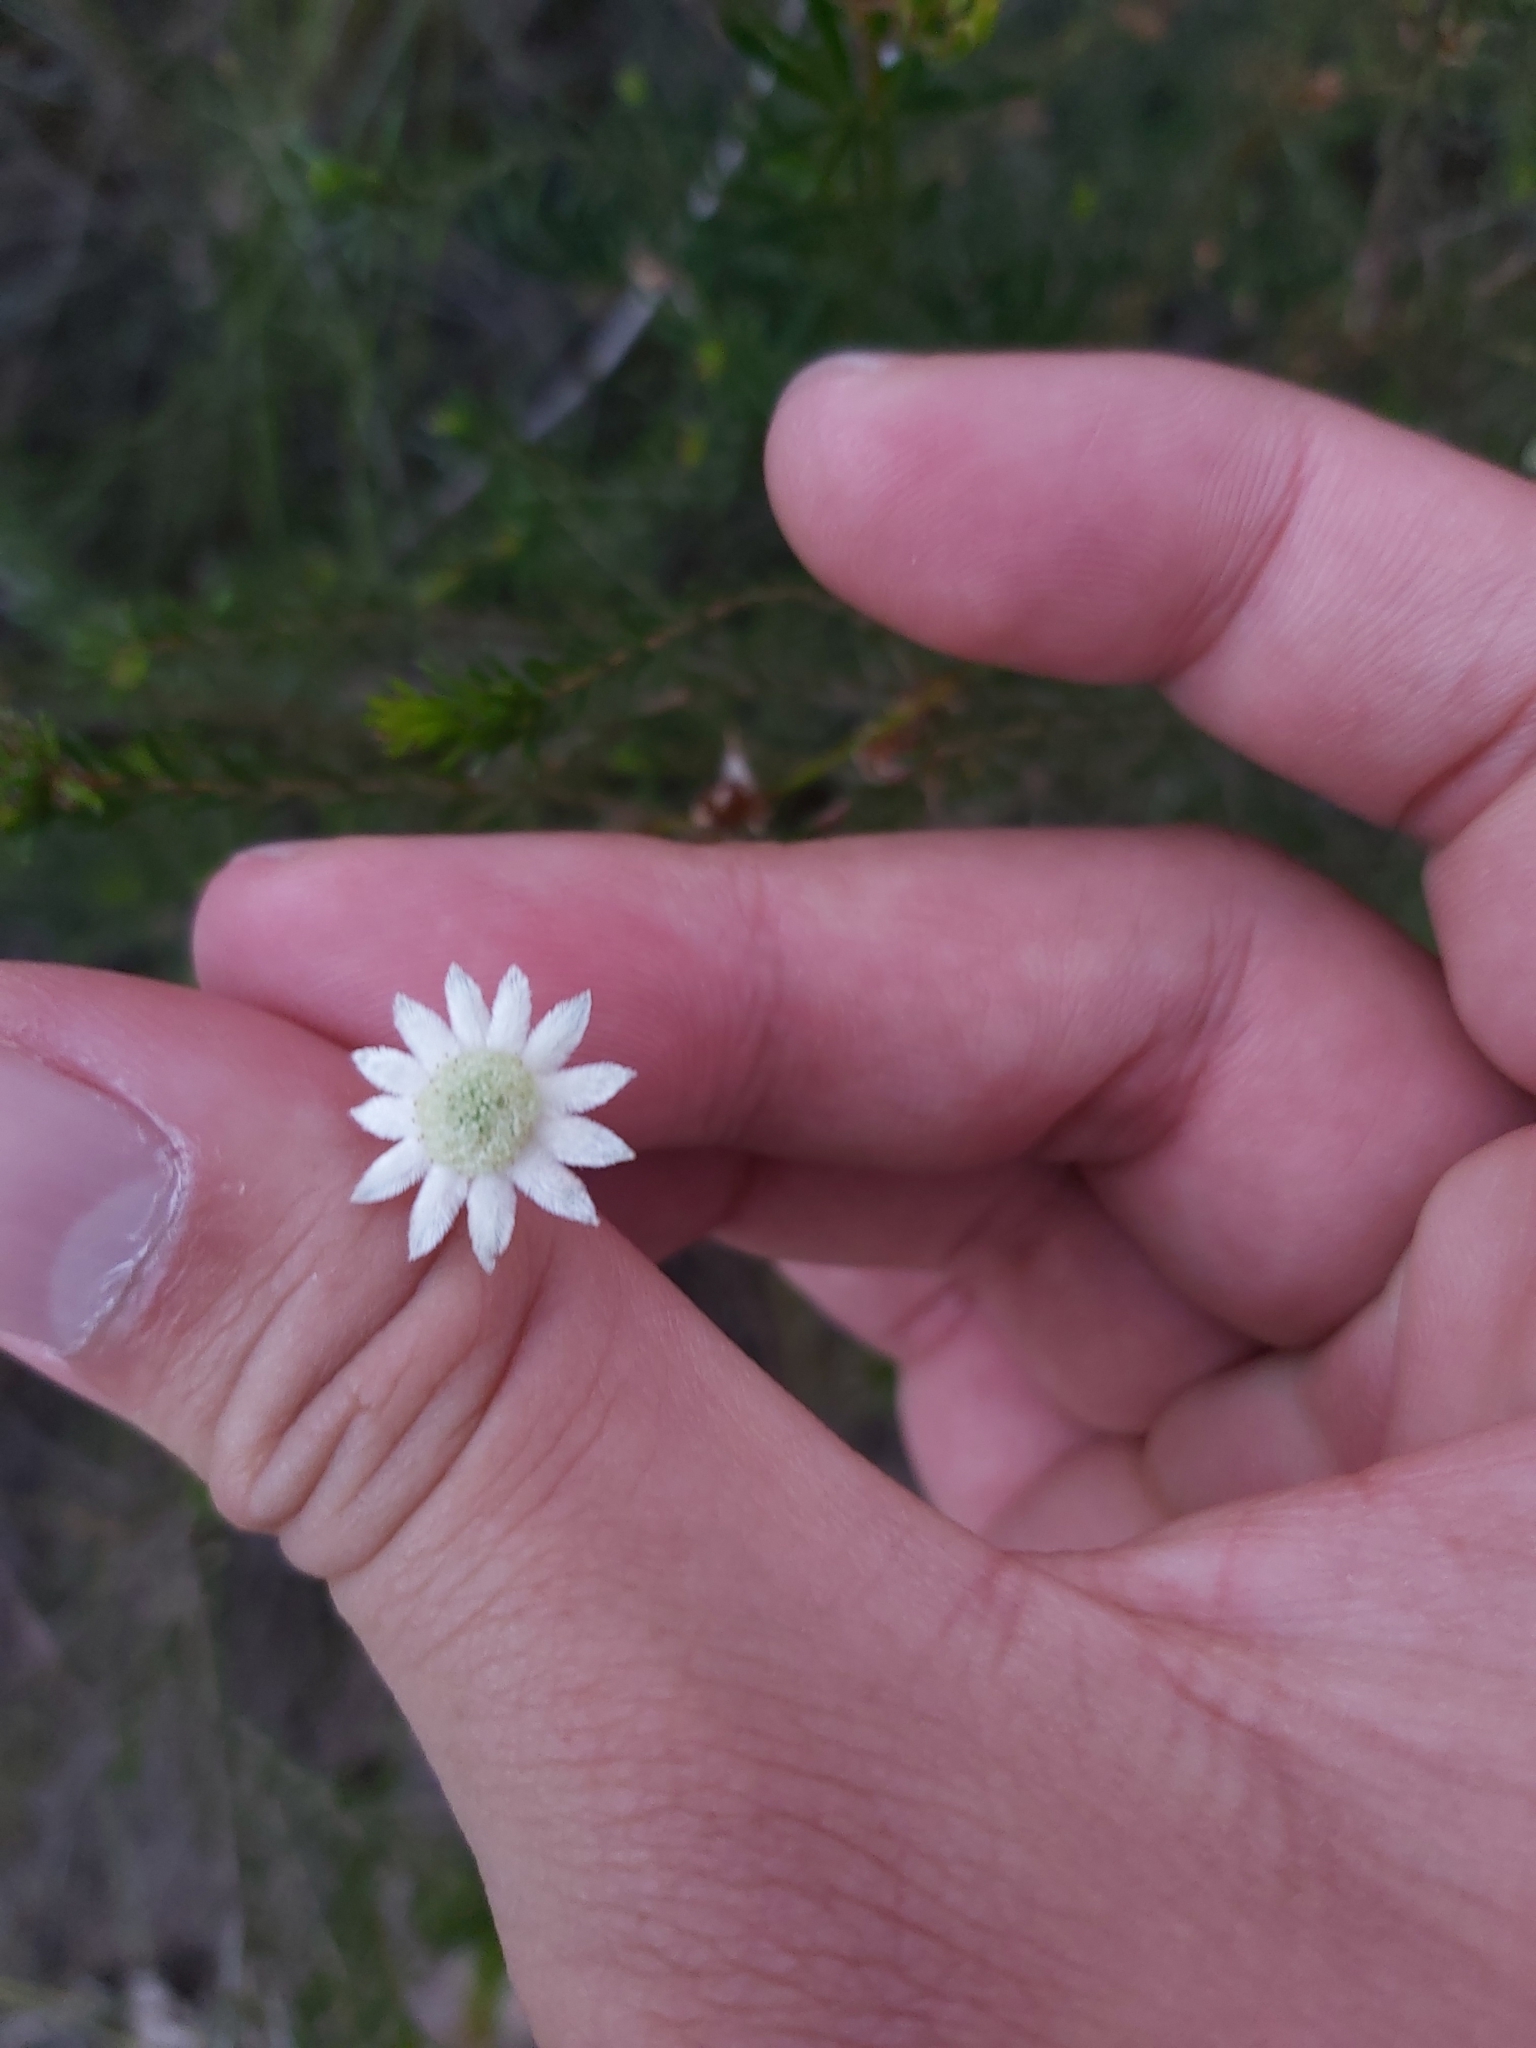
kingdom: Plantae
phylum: Tracheophyta
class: Magnoliopsida
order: Apiales
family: Apiaceae
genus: Actinotus
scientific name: Actinotus minor
